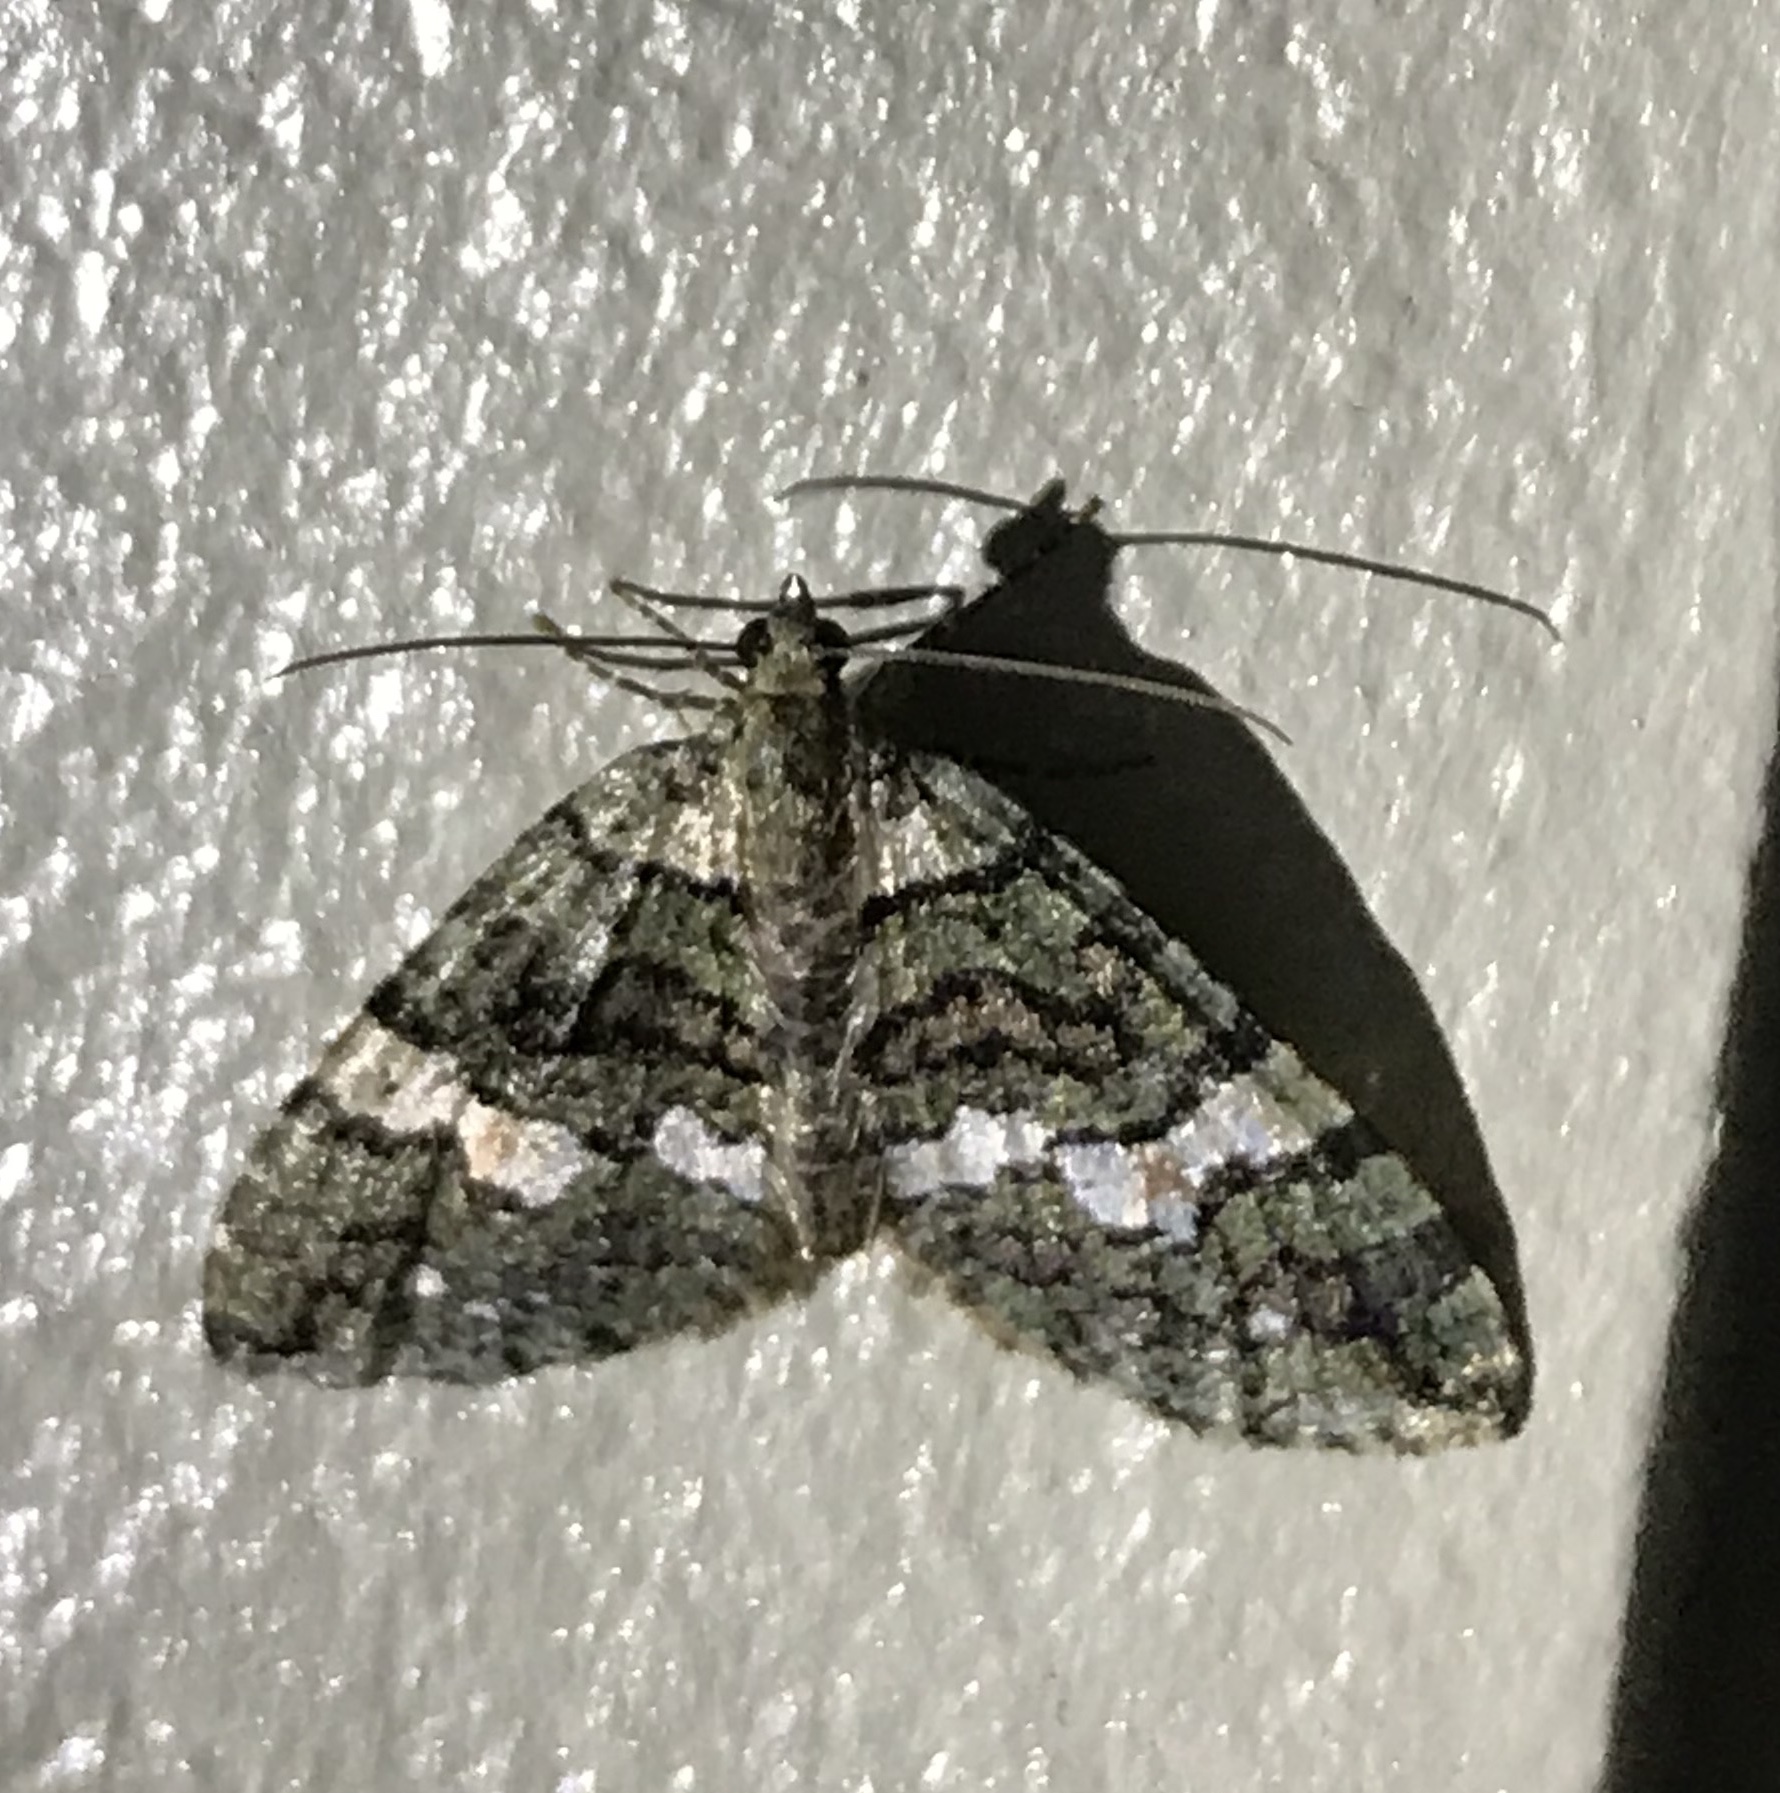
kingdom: Animalia
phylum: Arthropoda
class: Insecta
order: Lepidoptera
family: Geometridae
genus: Hydriomena
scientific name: Hydriomena albifasciata
